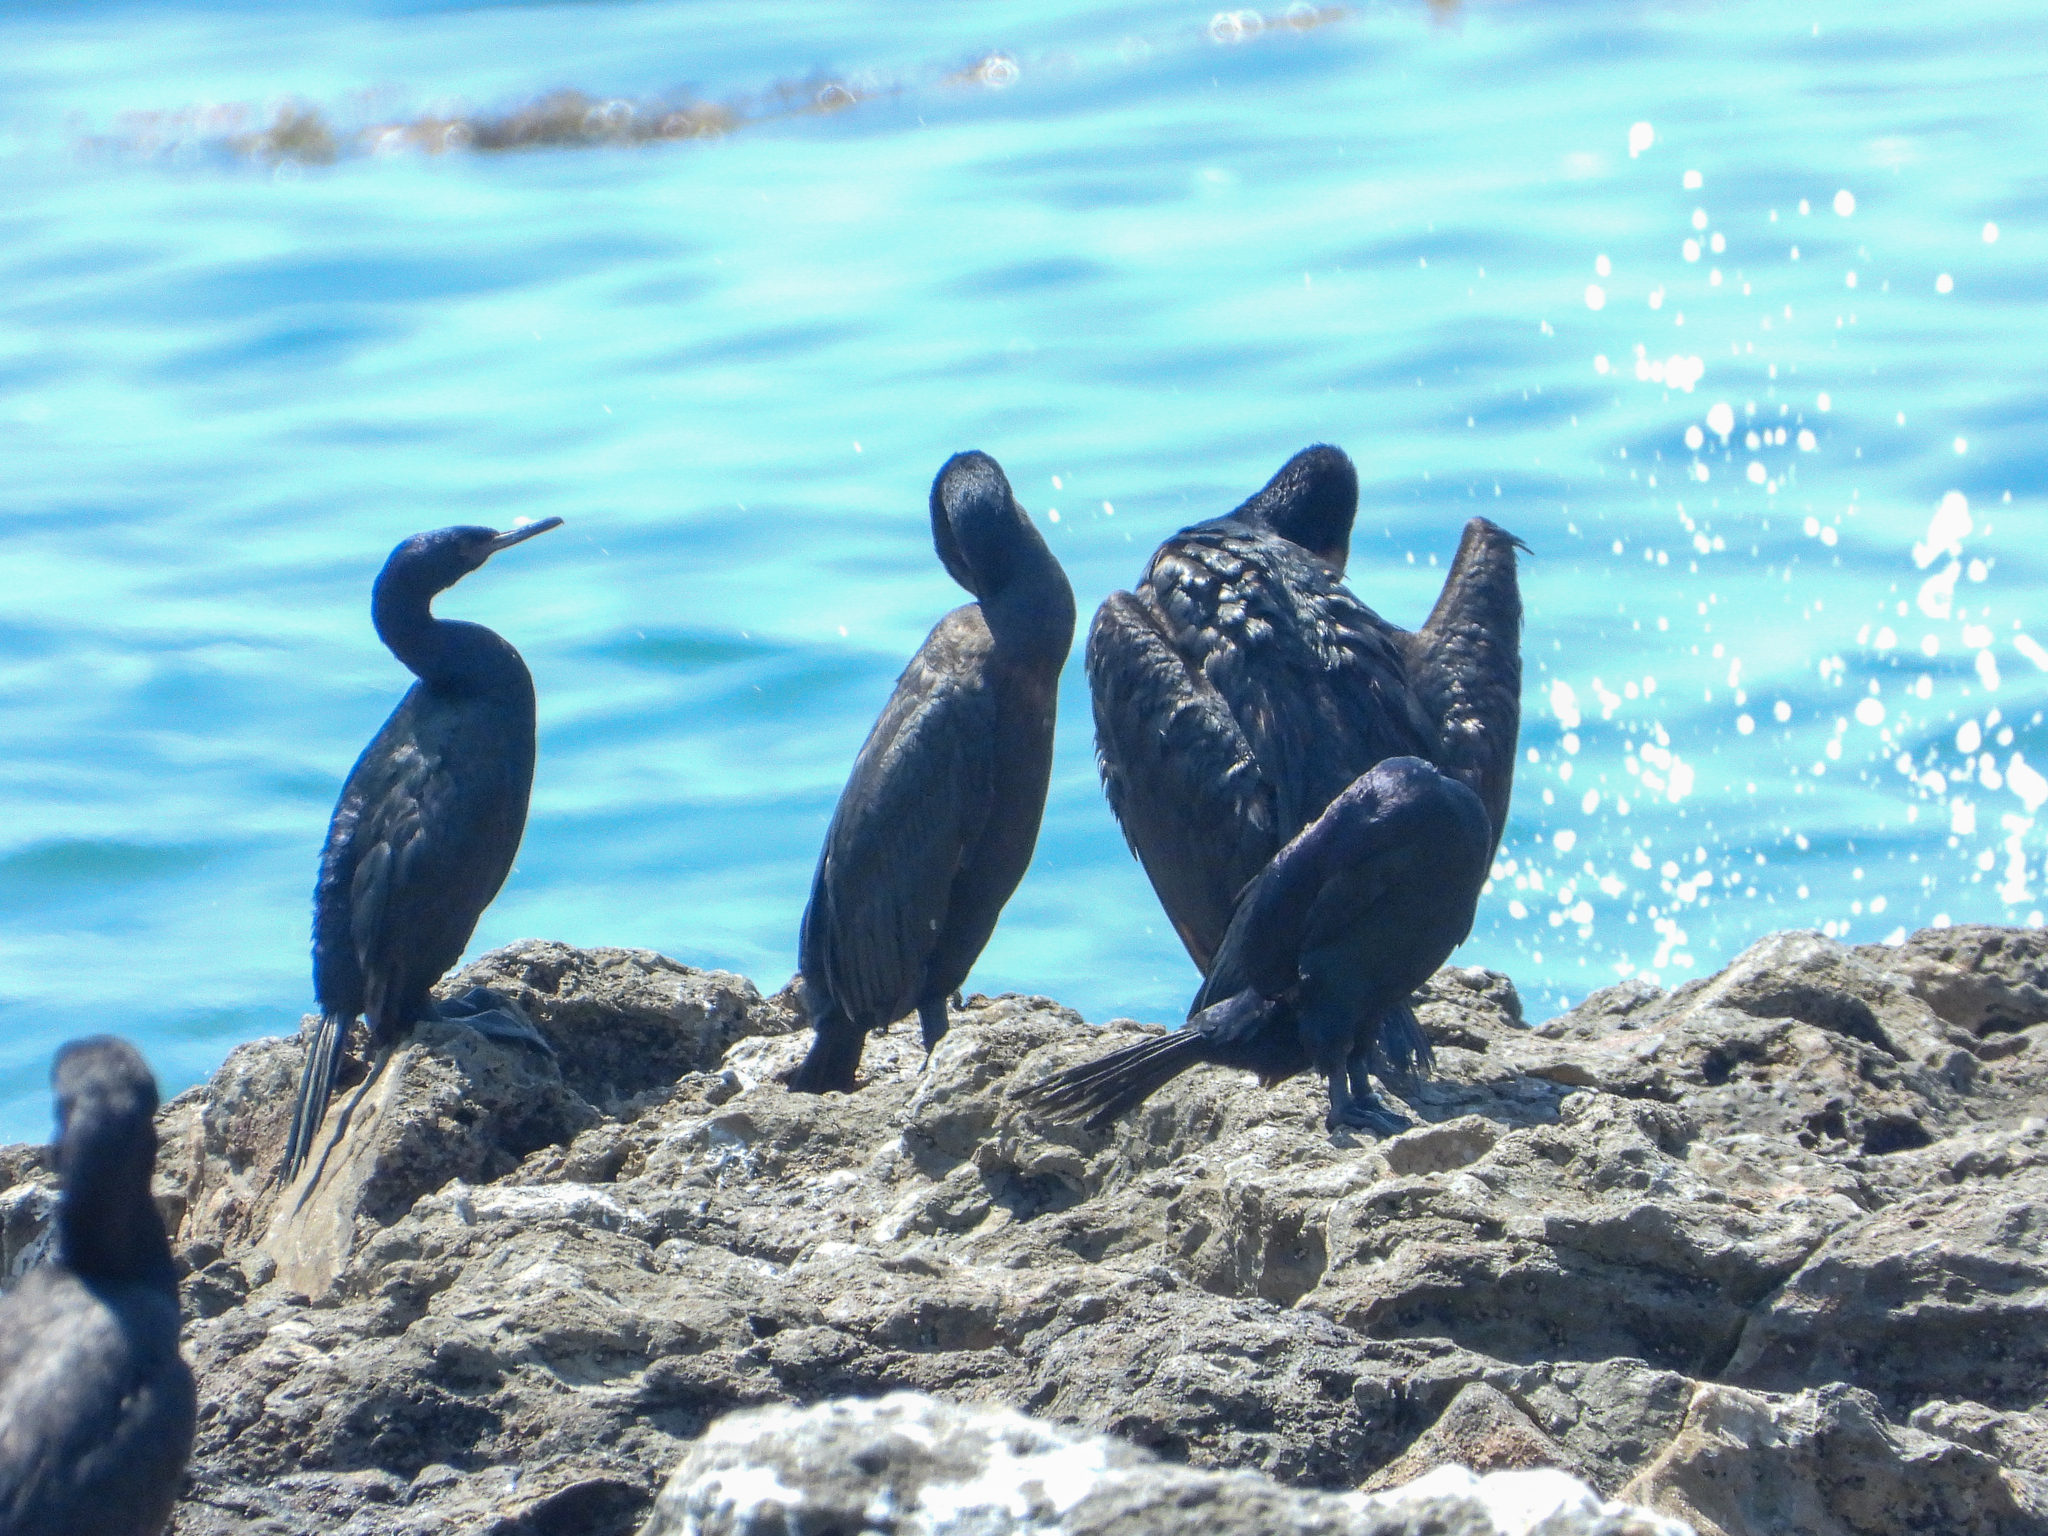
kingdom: Animalia
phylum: Chordata
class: Aves
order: Suliformes
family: Phalacrocoracidae
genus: Phalacrocorax
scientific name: Phalacrocorax pelagicus
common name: Pelagic cormorant
